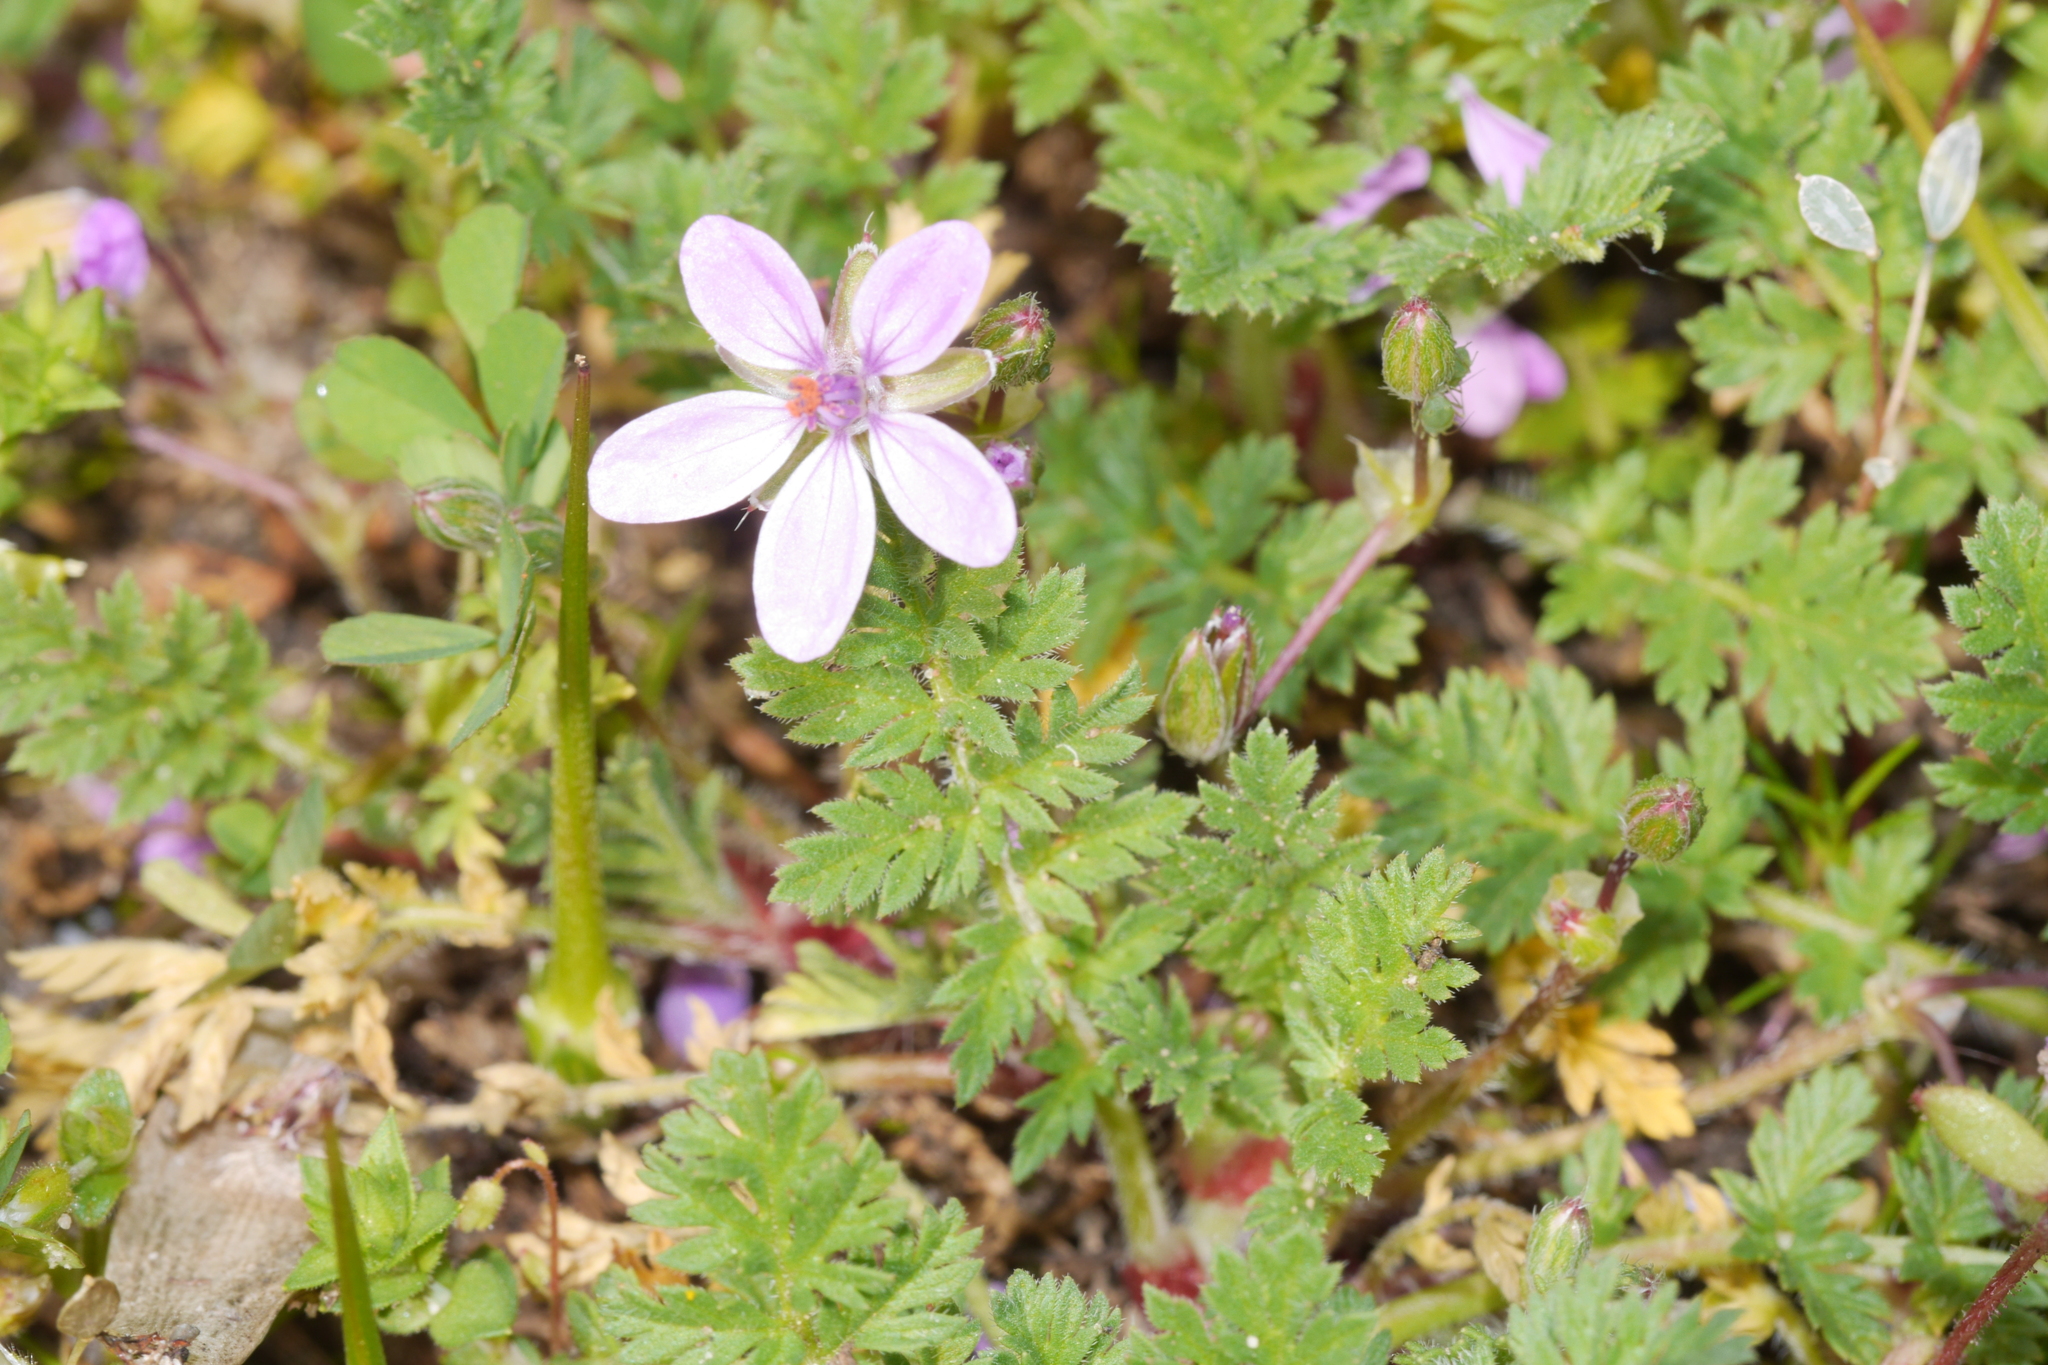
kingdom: Plantae
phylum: Tracheophyta
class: Magnoliopsida
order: Geraniales
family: Geraniaceae
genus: Erodium
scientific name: Erodium cicutarium
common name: Common stork's-bill
